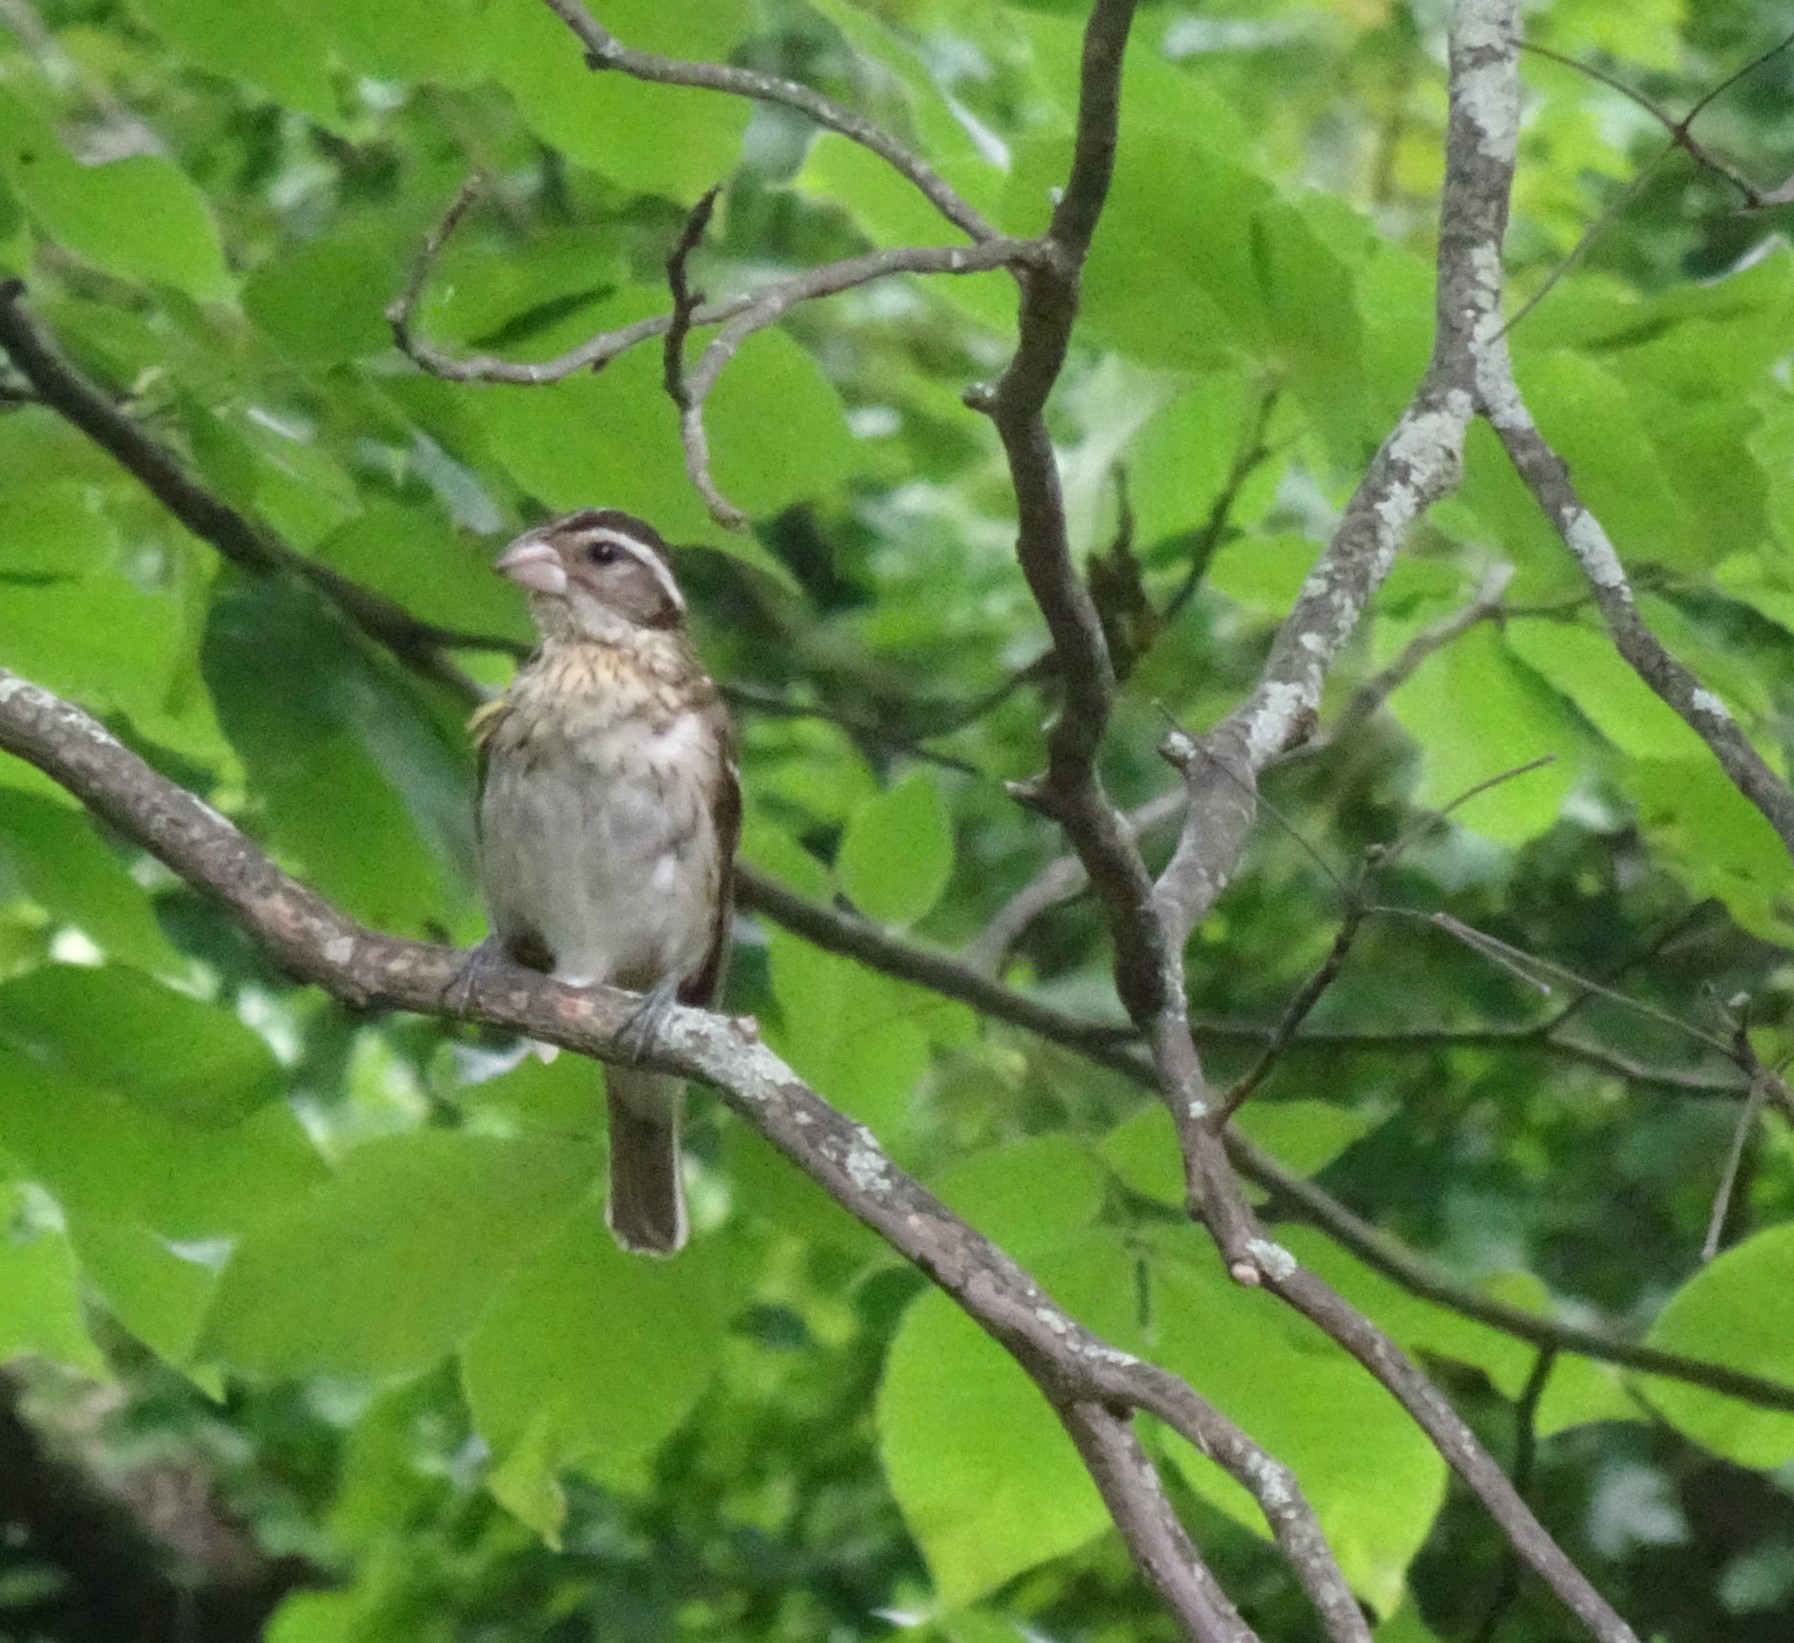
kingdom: Animalia
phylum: Chordata
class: Aves
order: Passeriformes
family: Cardinalidae
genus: Pheucticus
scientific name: Pheucticus ludovicianus
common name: Rose-breasted grosbeak
